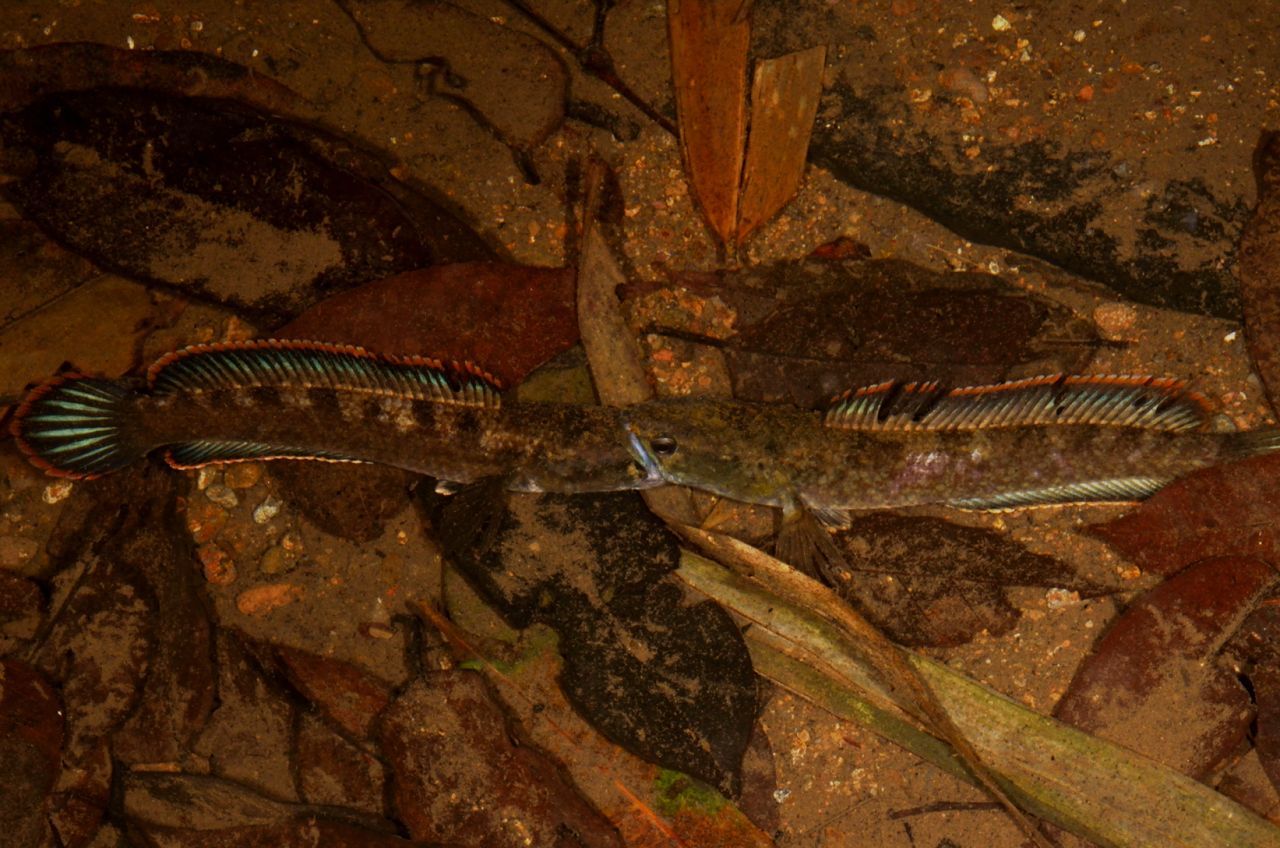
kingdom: Animalia
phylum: Chordata
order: Perciformes
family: Channidae
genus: Channa
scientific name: Channa gachua
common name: Dwarf snakehead
